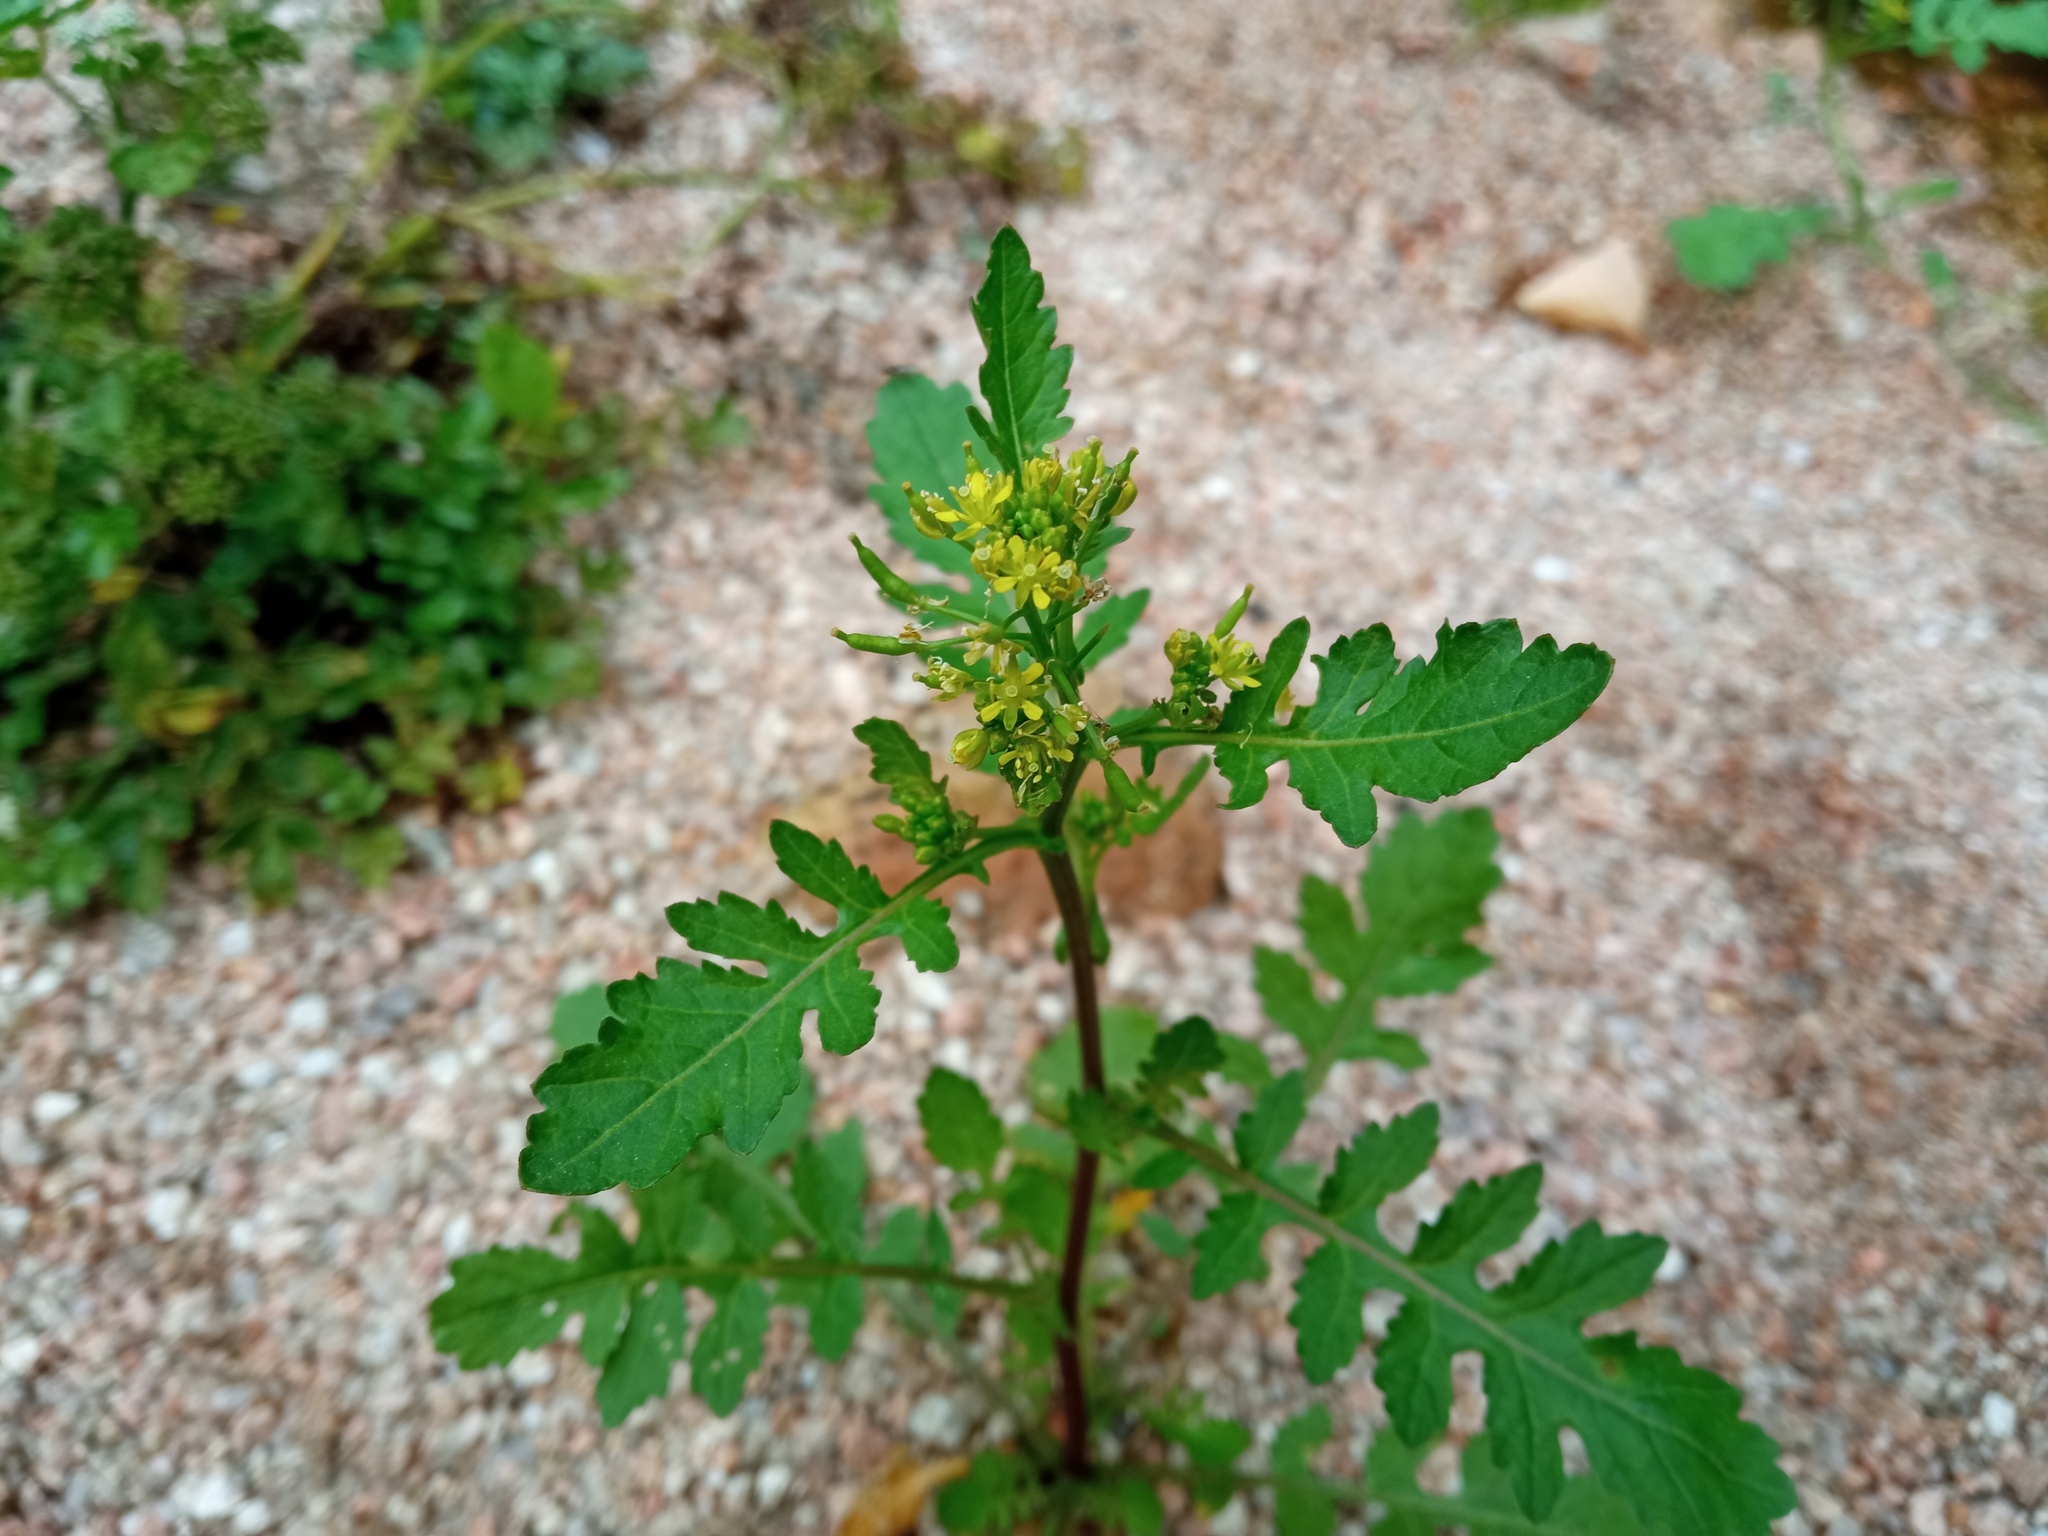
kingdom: Plantae
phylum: Tracheophyta
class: Magnoliopsida
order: Brassicales
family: Brassicaceae
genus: Rorippa
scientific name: Rorippa palustris
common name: Marsh yellow-cress
